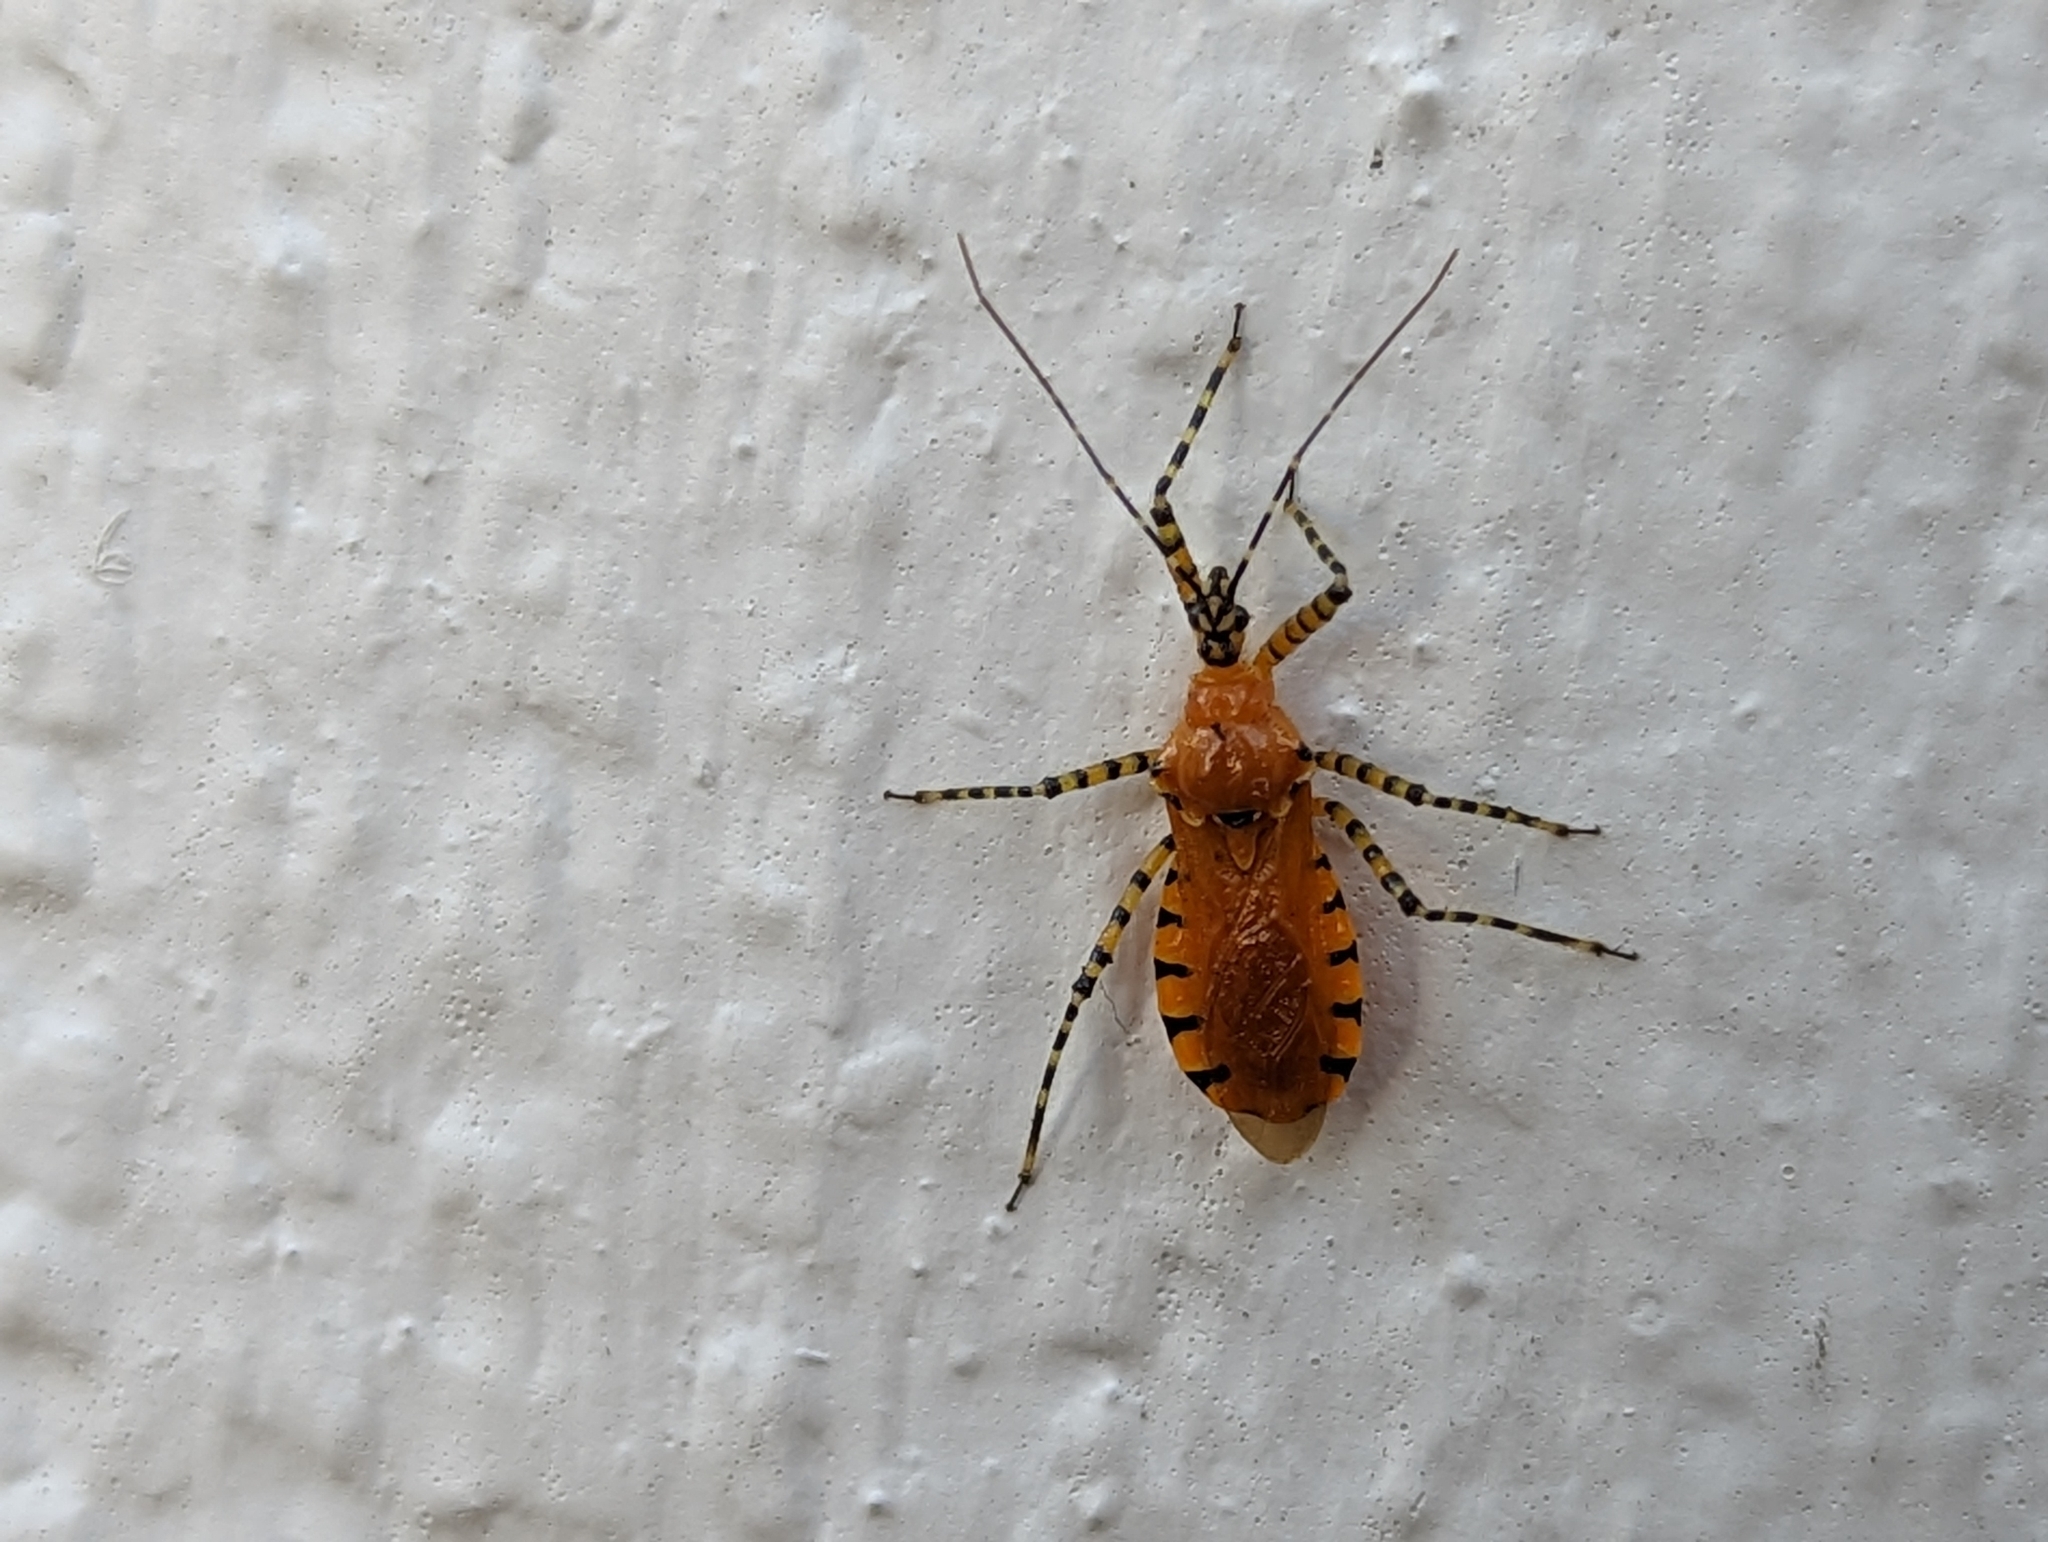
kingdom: Animalia
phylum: Arthropoda
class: Insecta
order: Hemiptera
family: Reduviidae
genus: Pselliopus
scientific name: Pselliopus barberi
